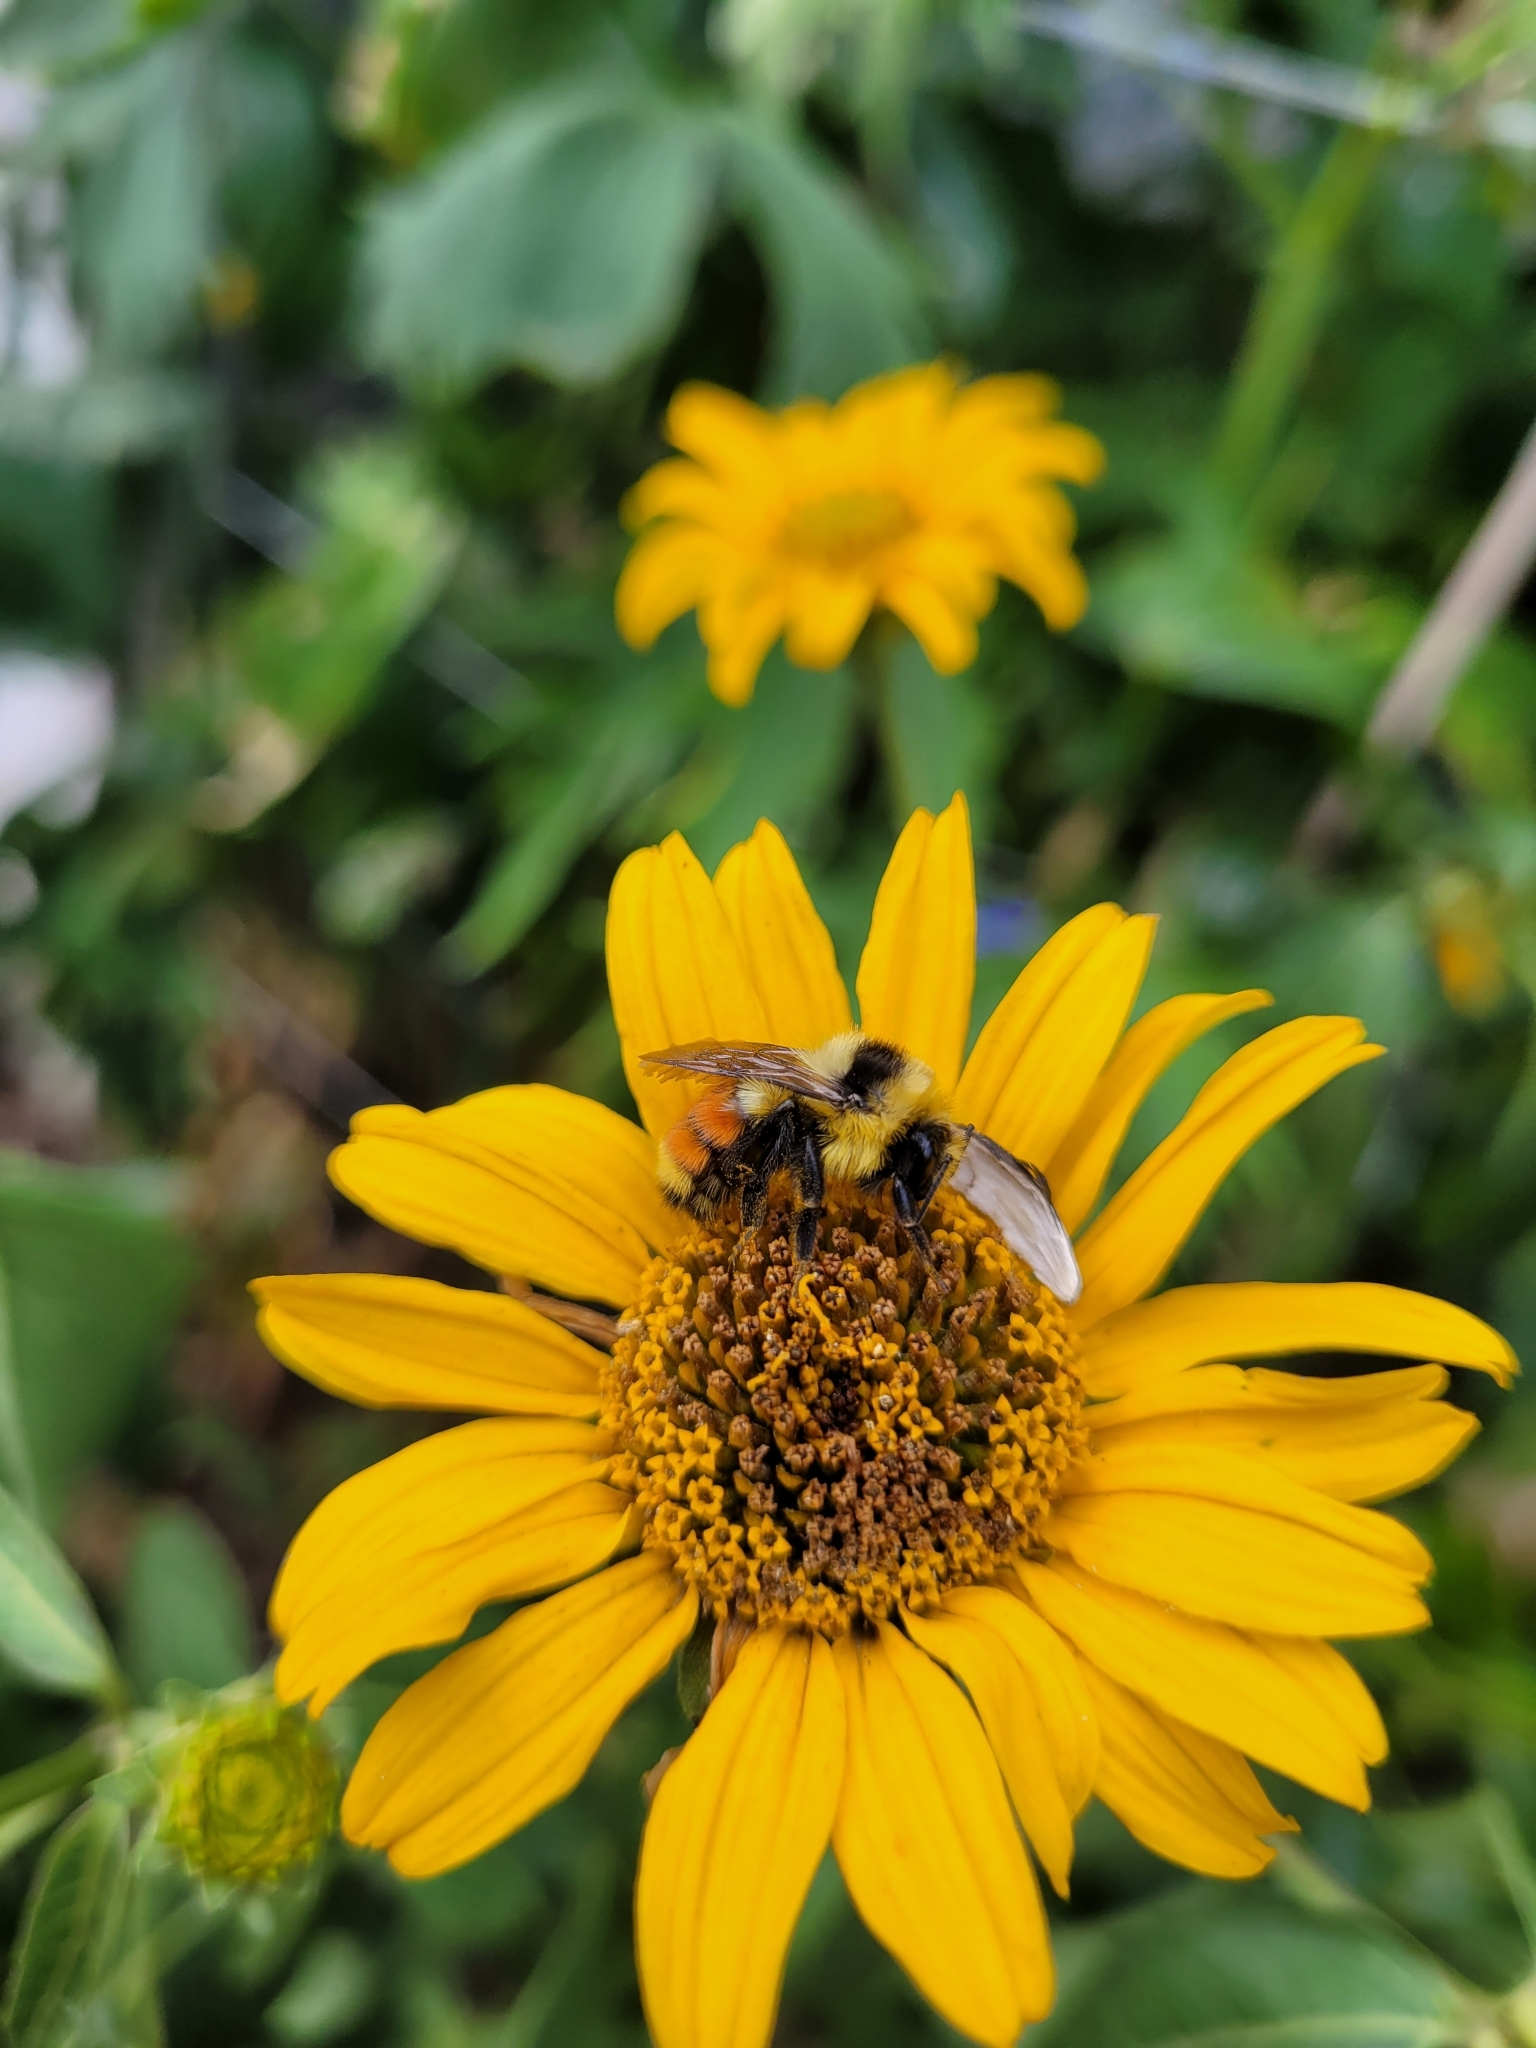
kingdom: Animalia
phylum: Arthropoda
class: Insecta
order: Hymenoptera
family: Apidae
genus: Bombus
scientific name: Bombus huntii
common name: Hunt bumble bee
